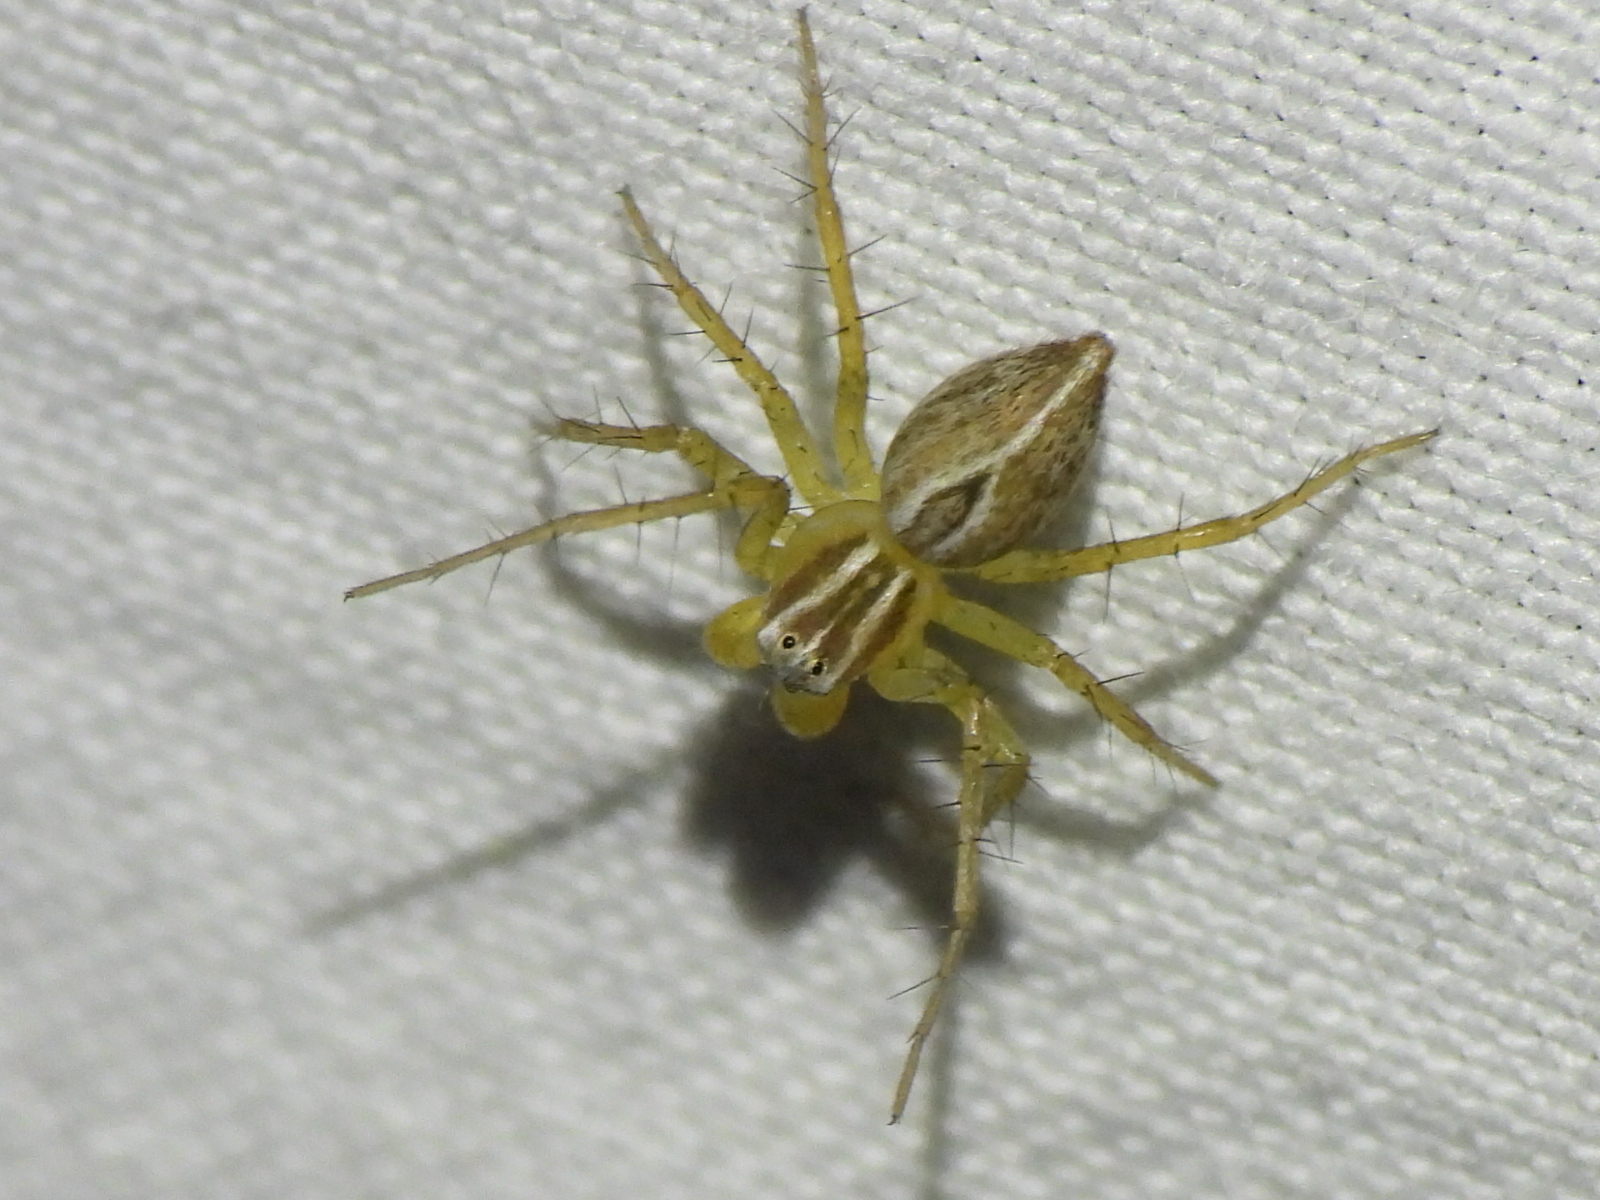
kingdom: Animalia
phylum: Arthropoda
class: Arachnida
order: Araneae
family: Oxyopidae
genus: Oxyopes
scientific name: Oxyopes salticus
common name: Lynx spiders
